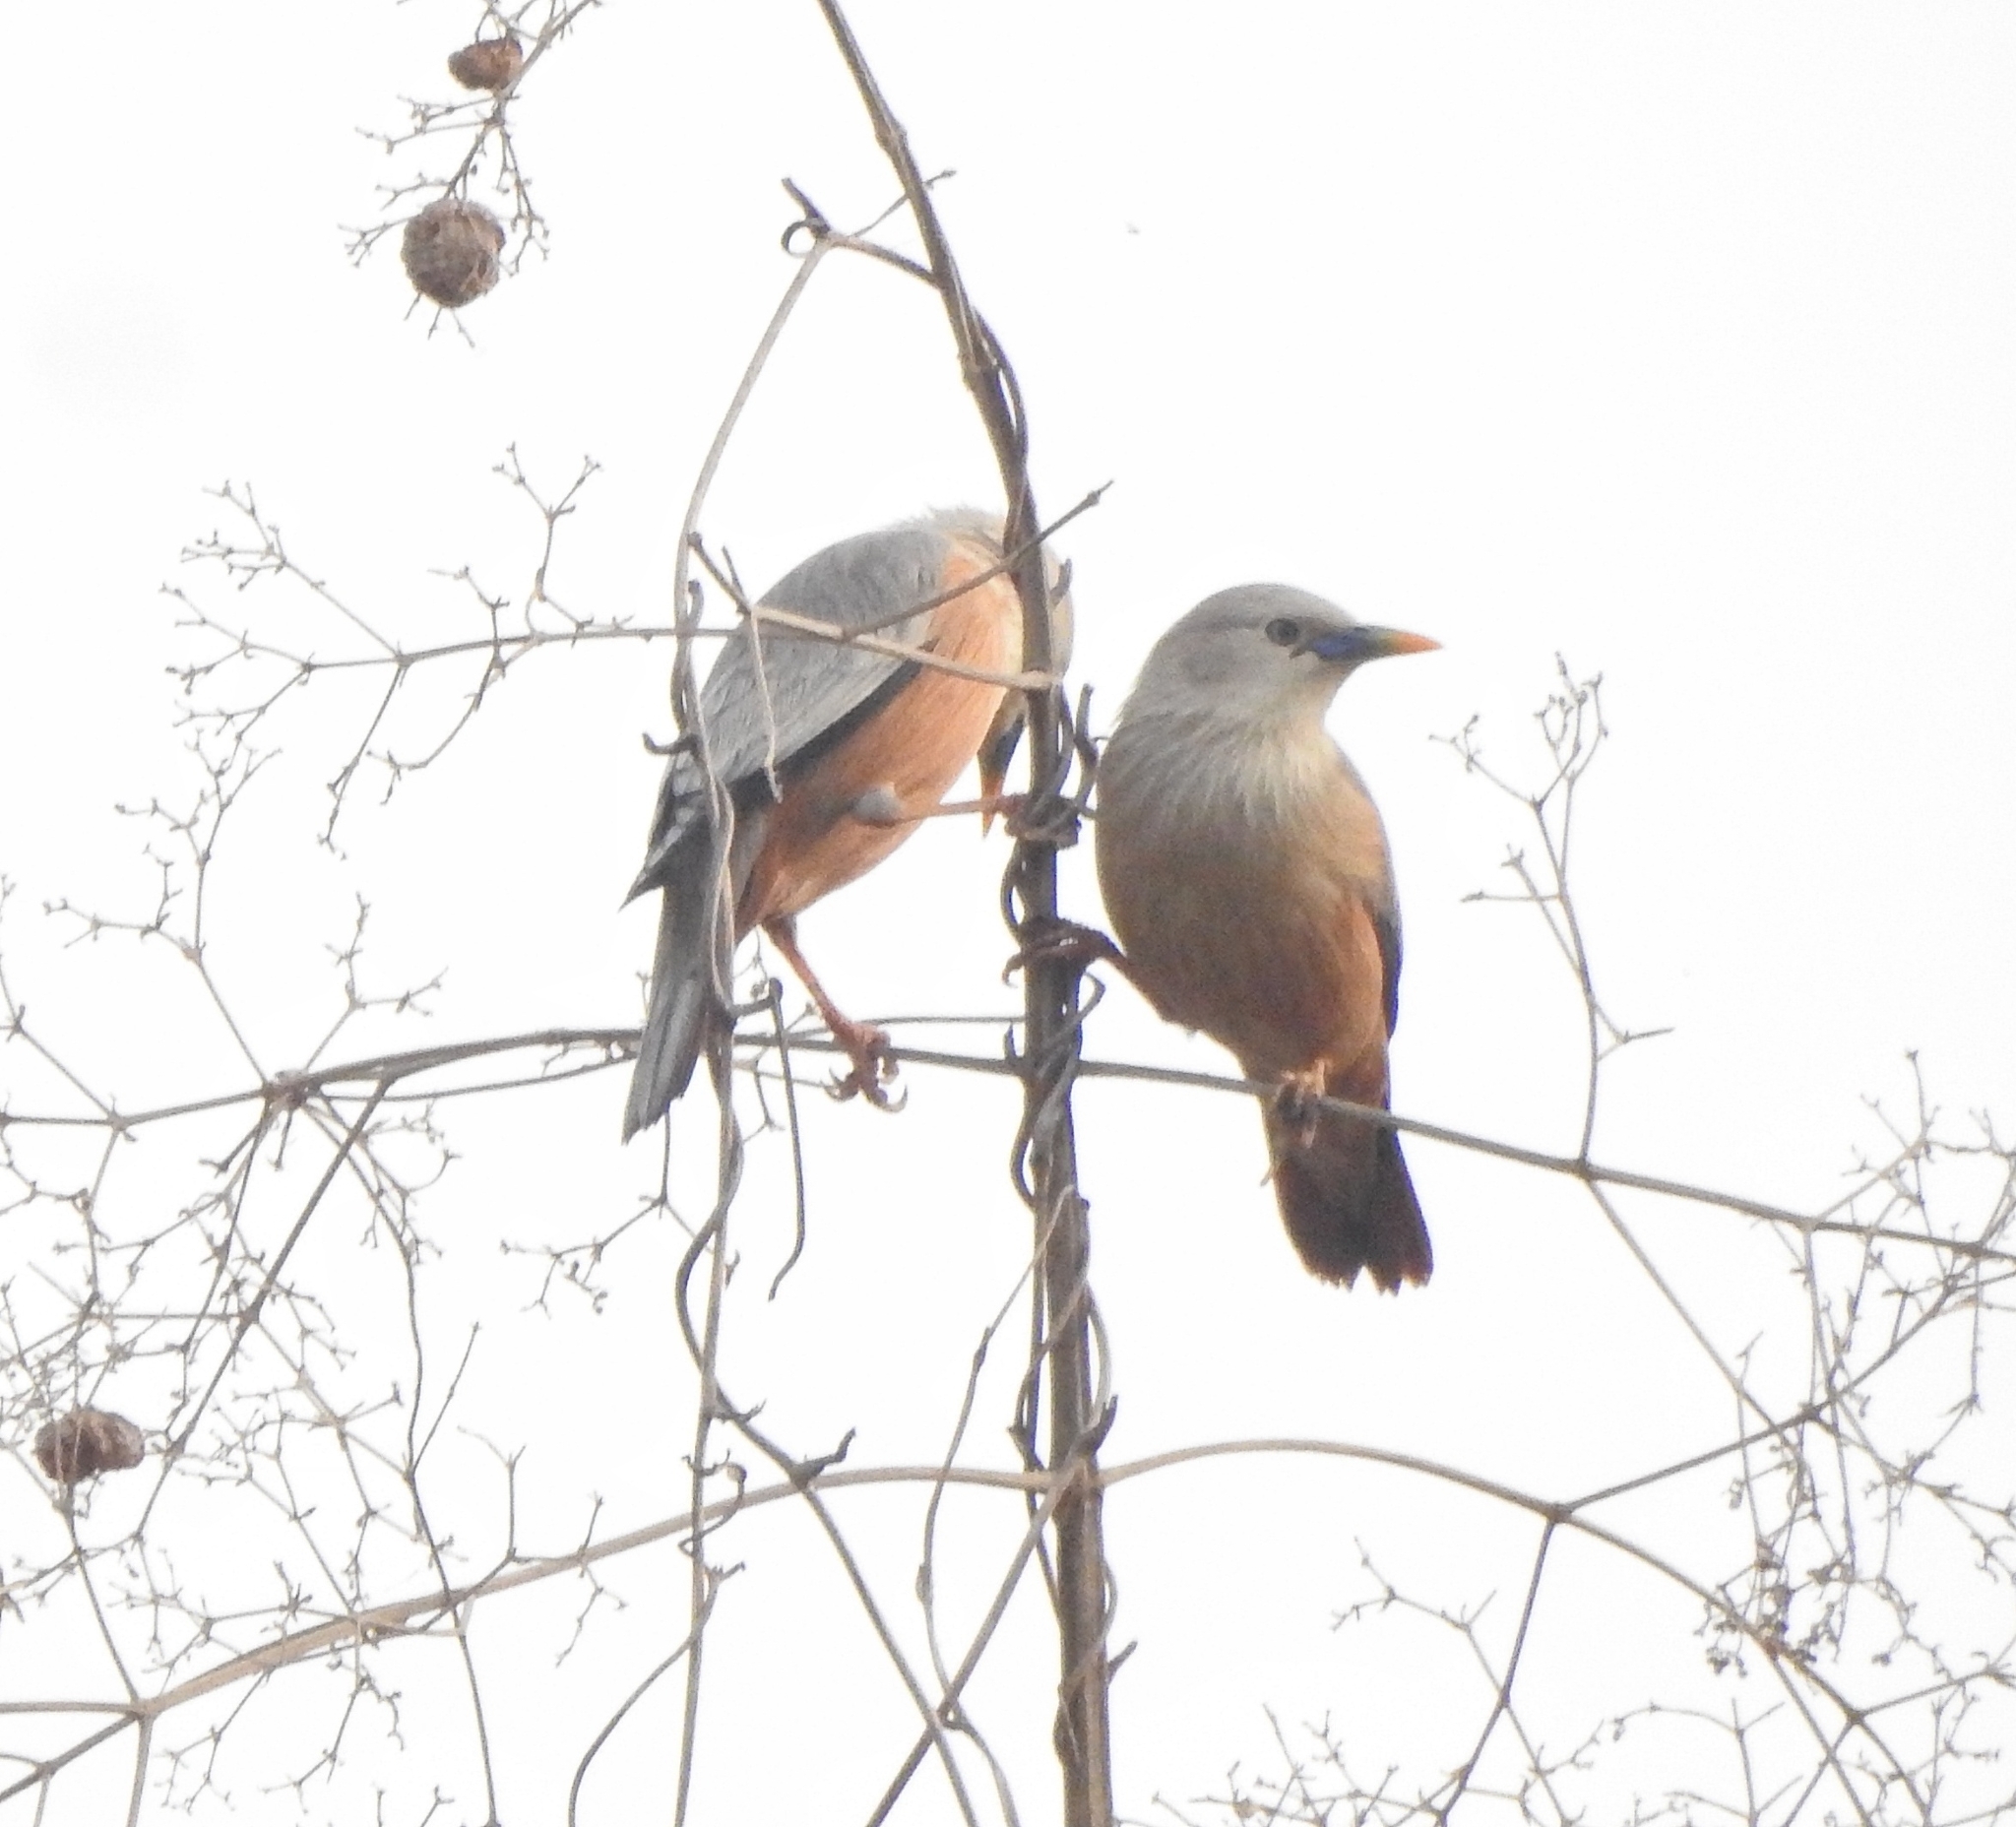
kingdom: Animalia
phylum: Chordata
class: Aves
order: Passeriformes
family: Sturnidae
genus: Sturnia
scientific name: Sturnia blythii
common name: Malabar starling
